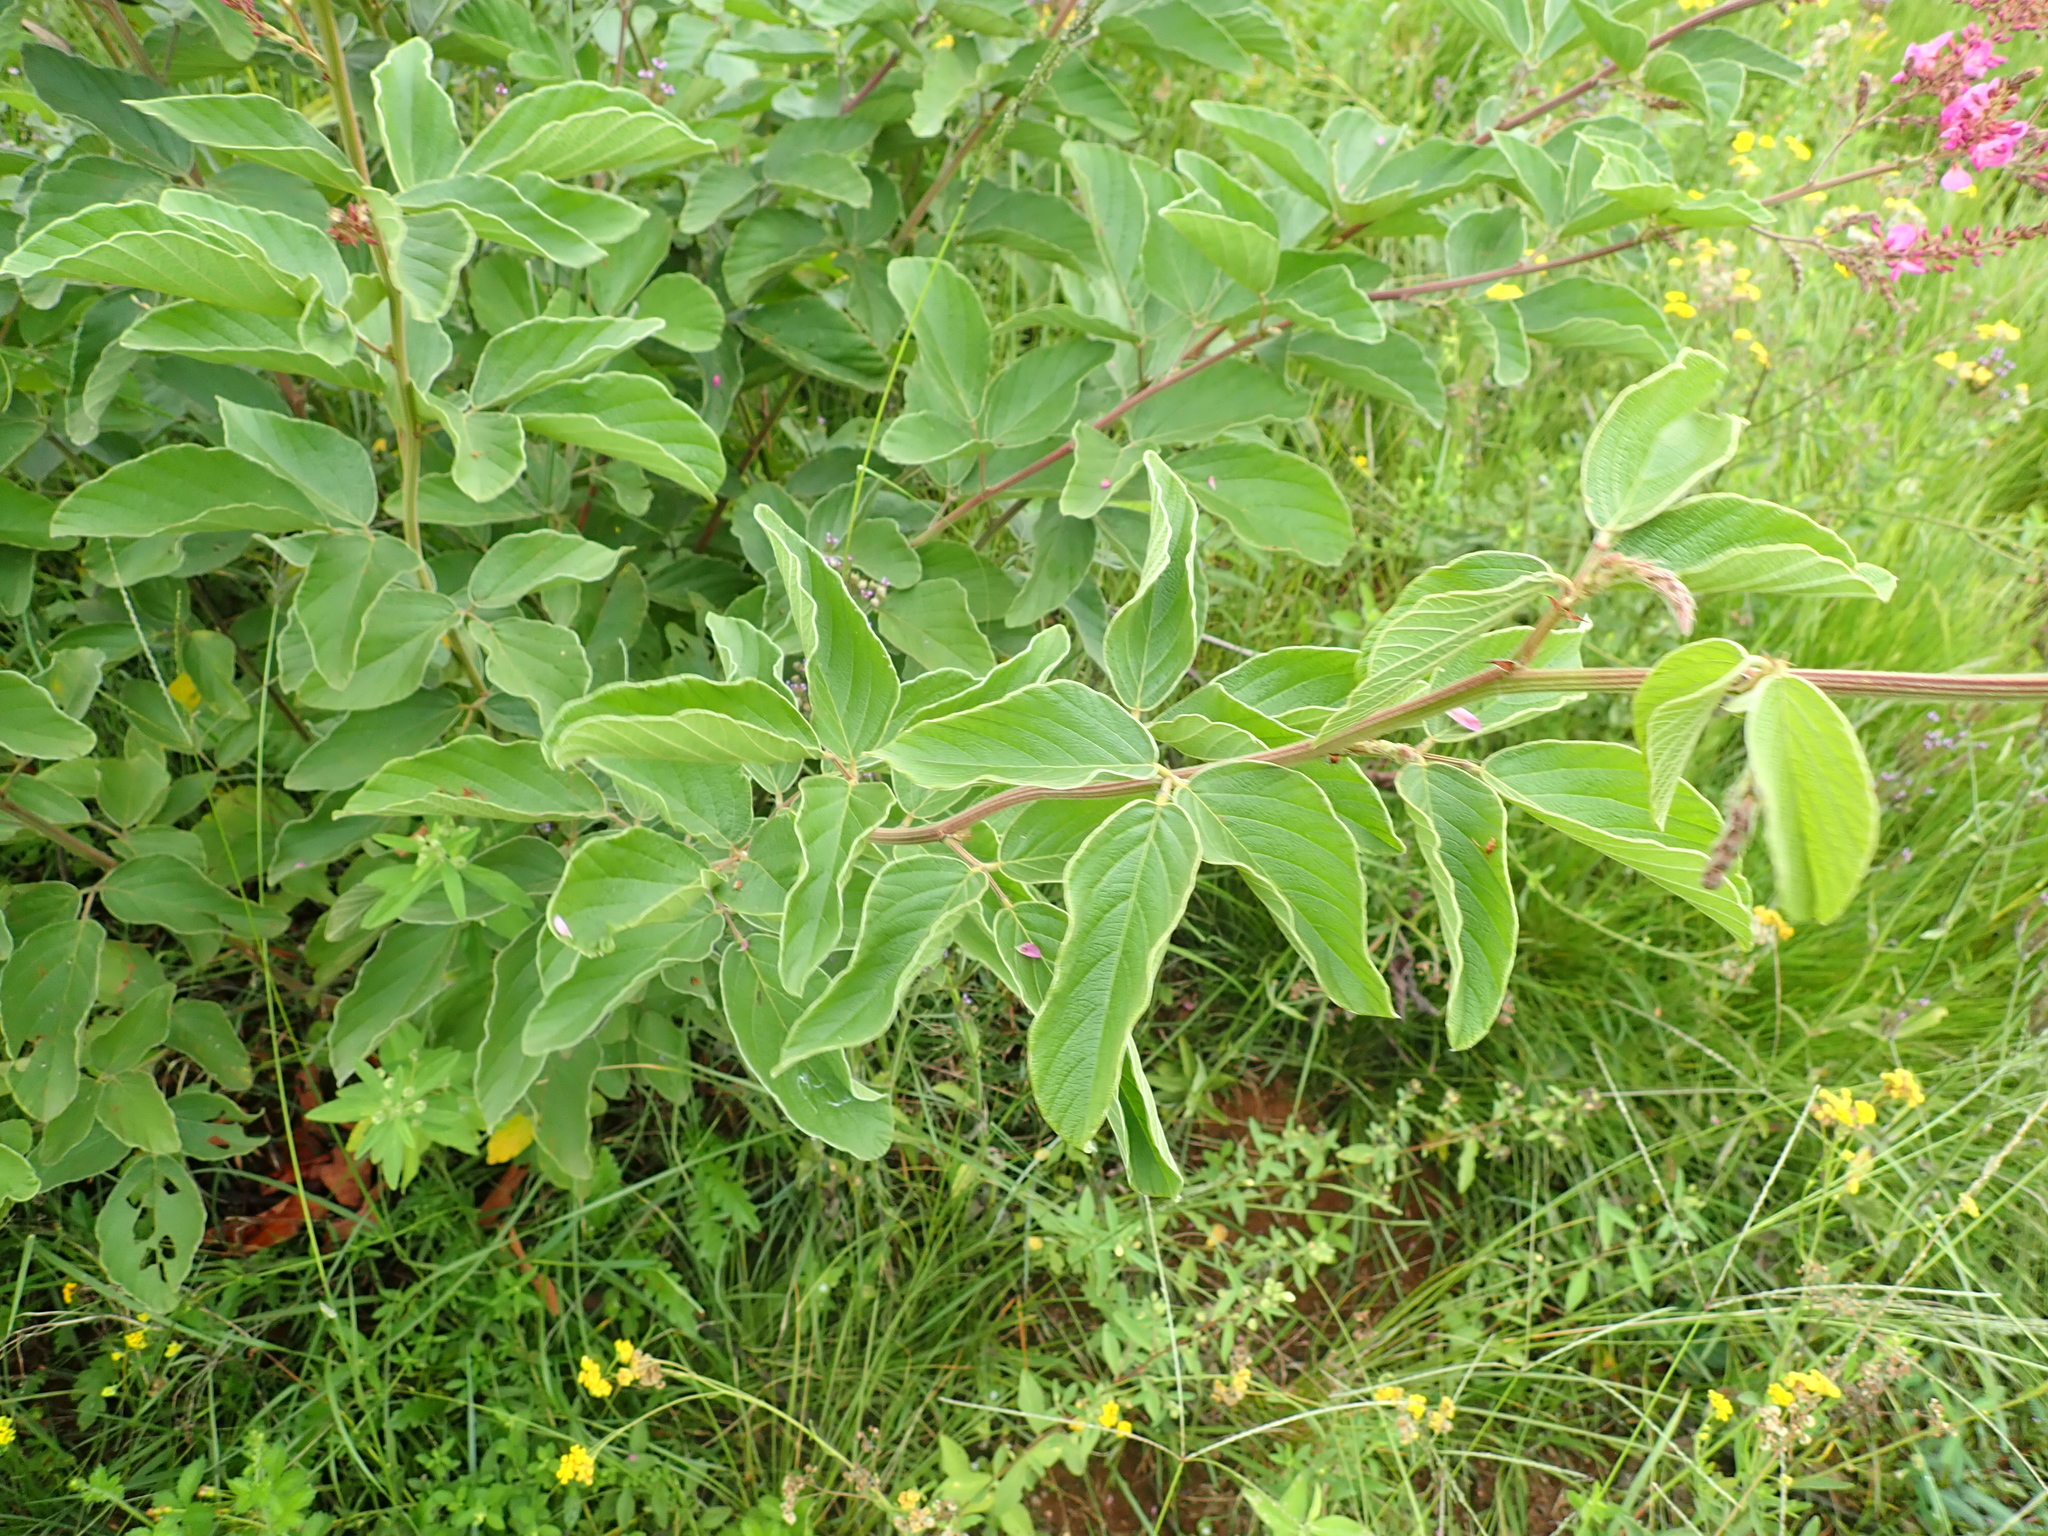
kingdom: Plantae
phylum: Tracheophyta
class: Magnoliopsida
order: Fabales
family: Fabaceae
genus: Pseudarthria
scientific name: Pseudarthria hookeri
